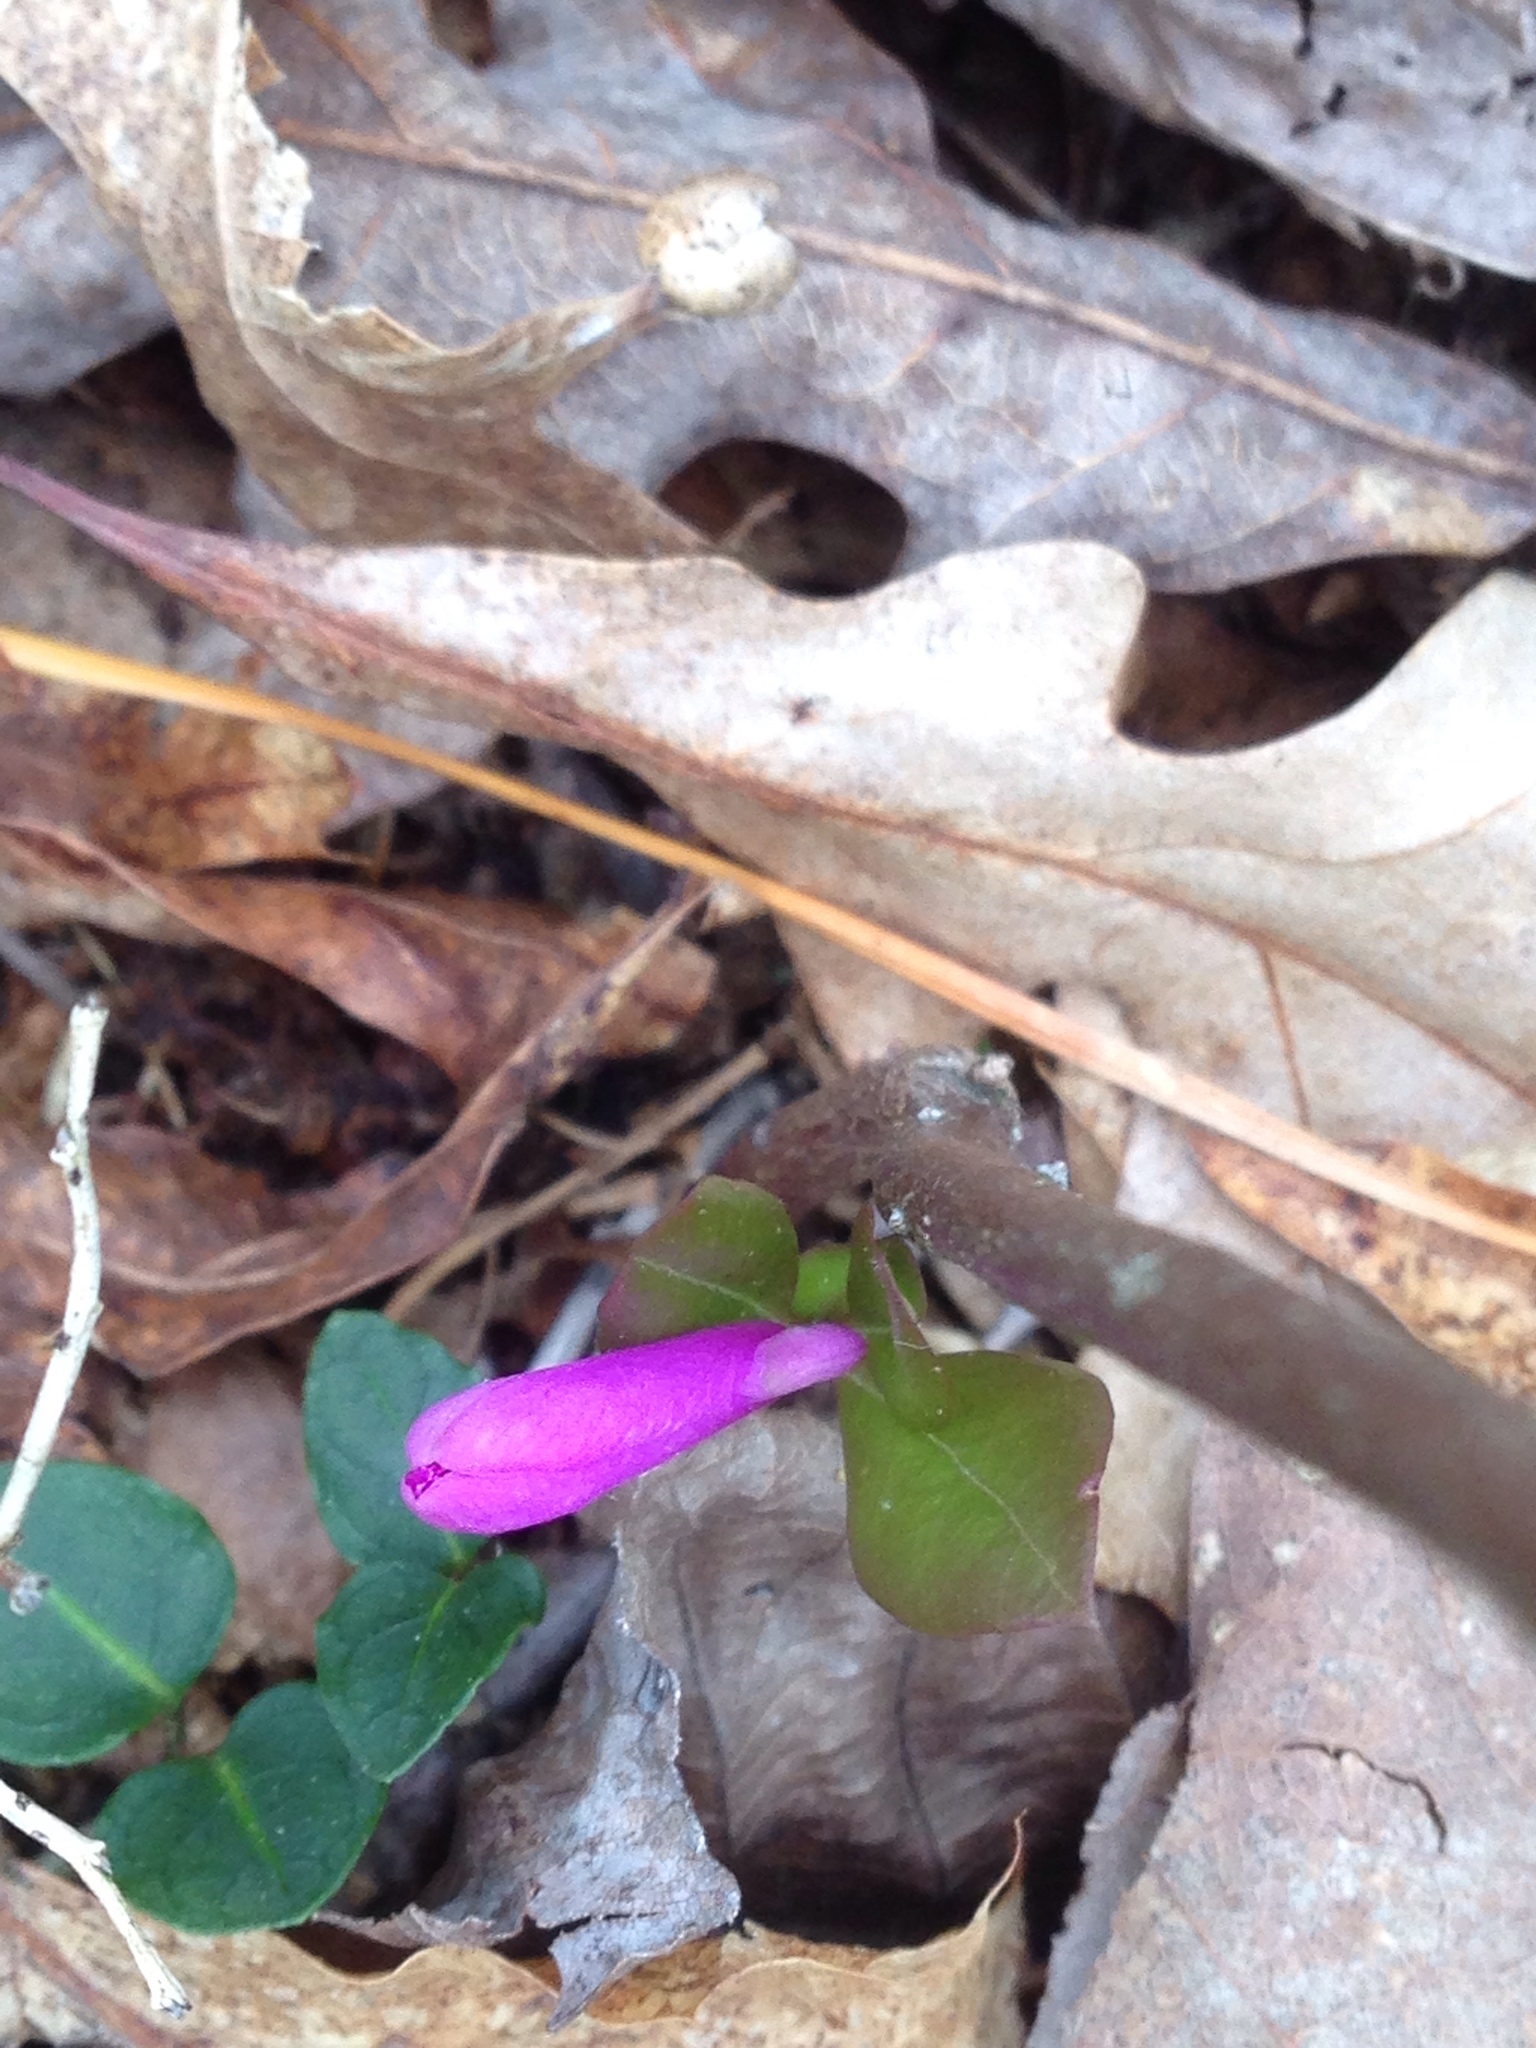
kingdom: Plantae
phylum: Tracheophyta
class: Magnoliopsida
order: Fabales
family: Polygalaceae
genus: Polygaloides
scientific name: Polygaloides paucifolia
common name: Bird-on-the-wing
